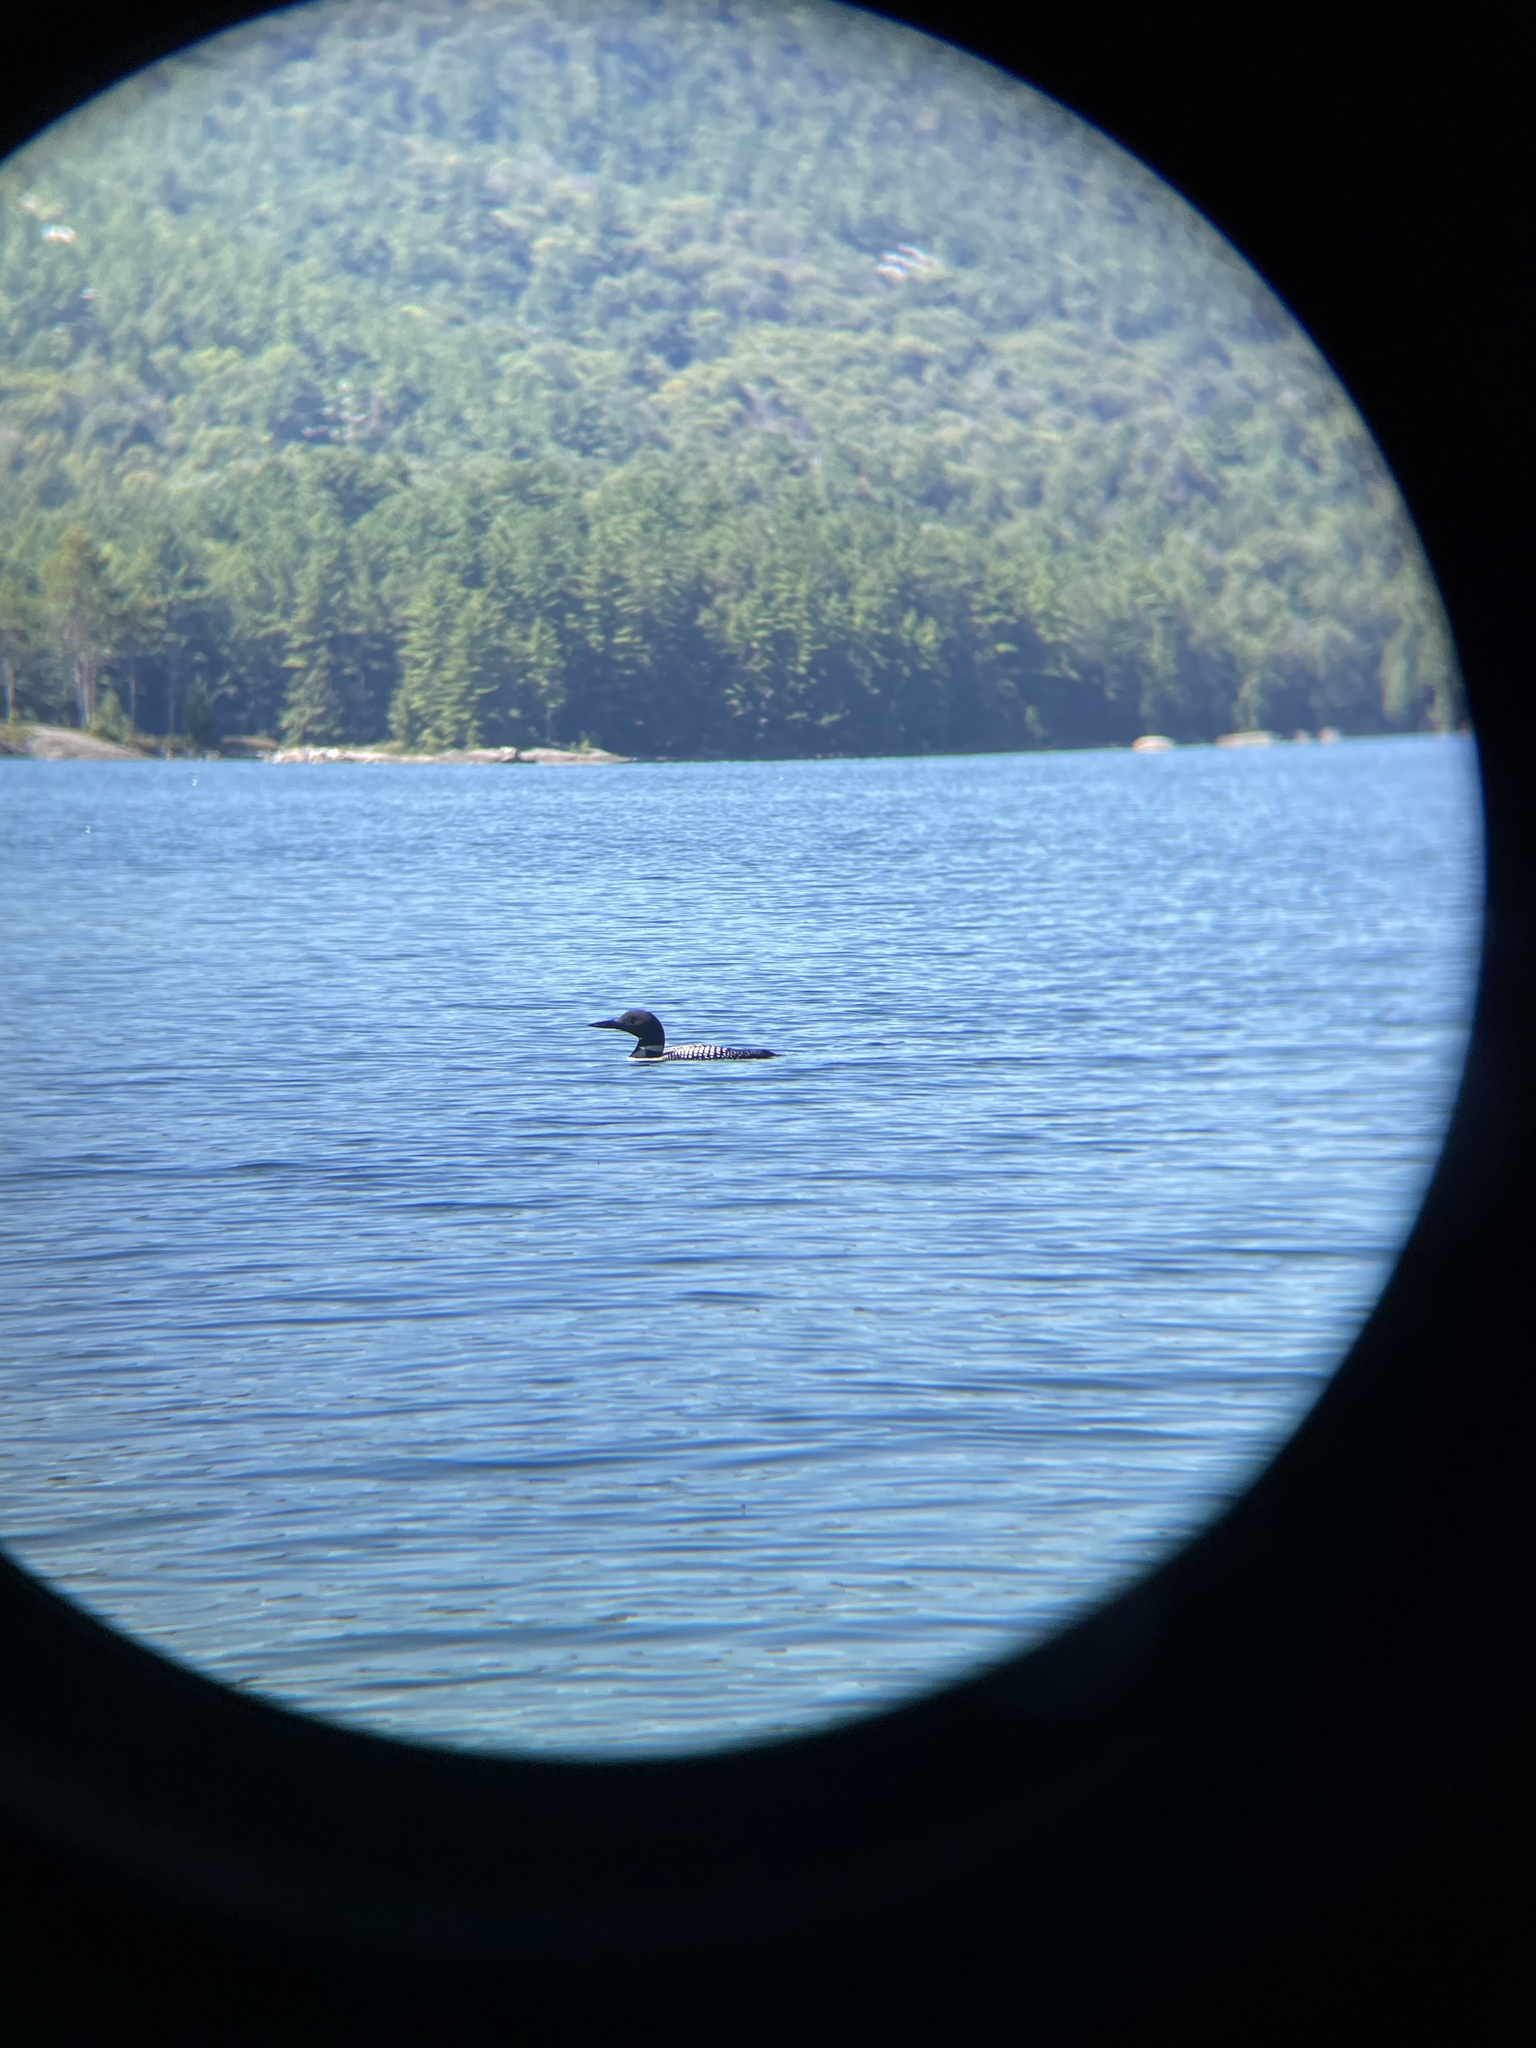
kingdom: Animalia
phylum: Chordata
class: Aves
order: Gaviiformes
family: Gaviidae
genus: Gavia
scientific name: Gavia immer
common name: Common loon
